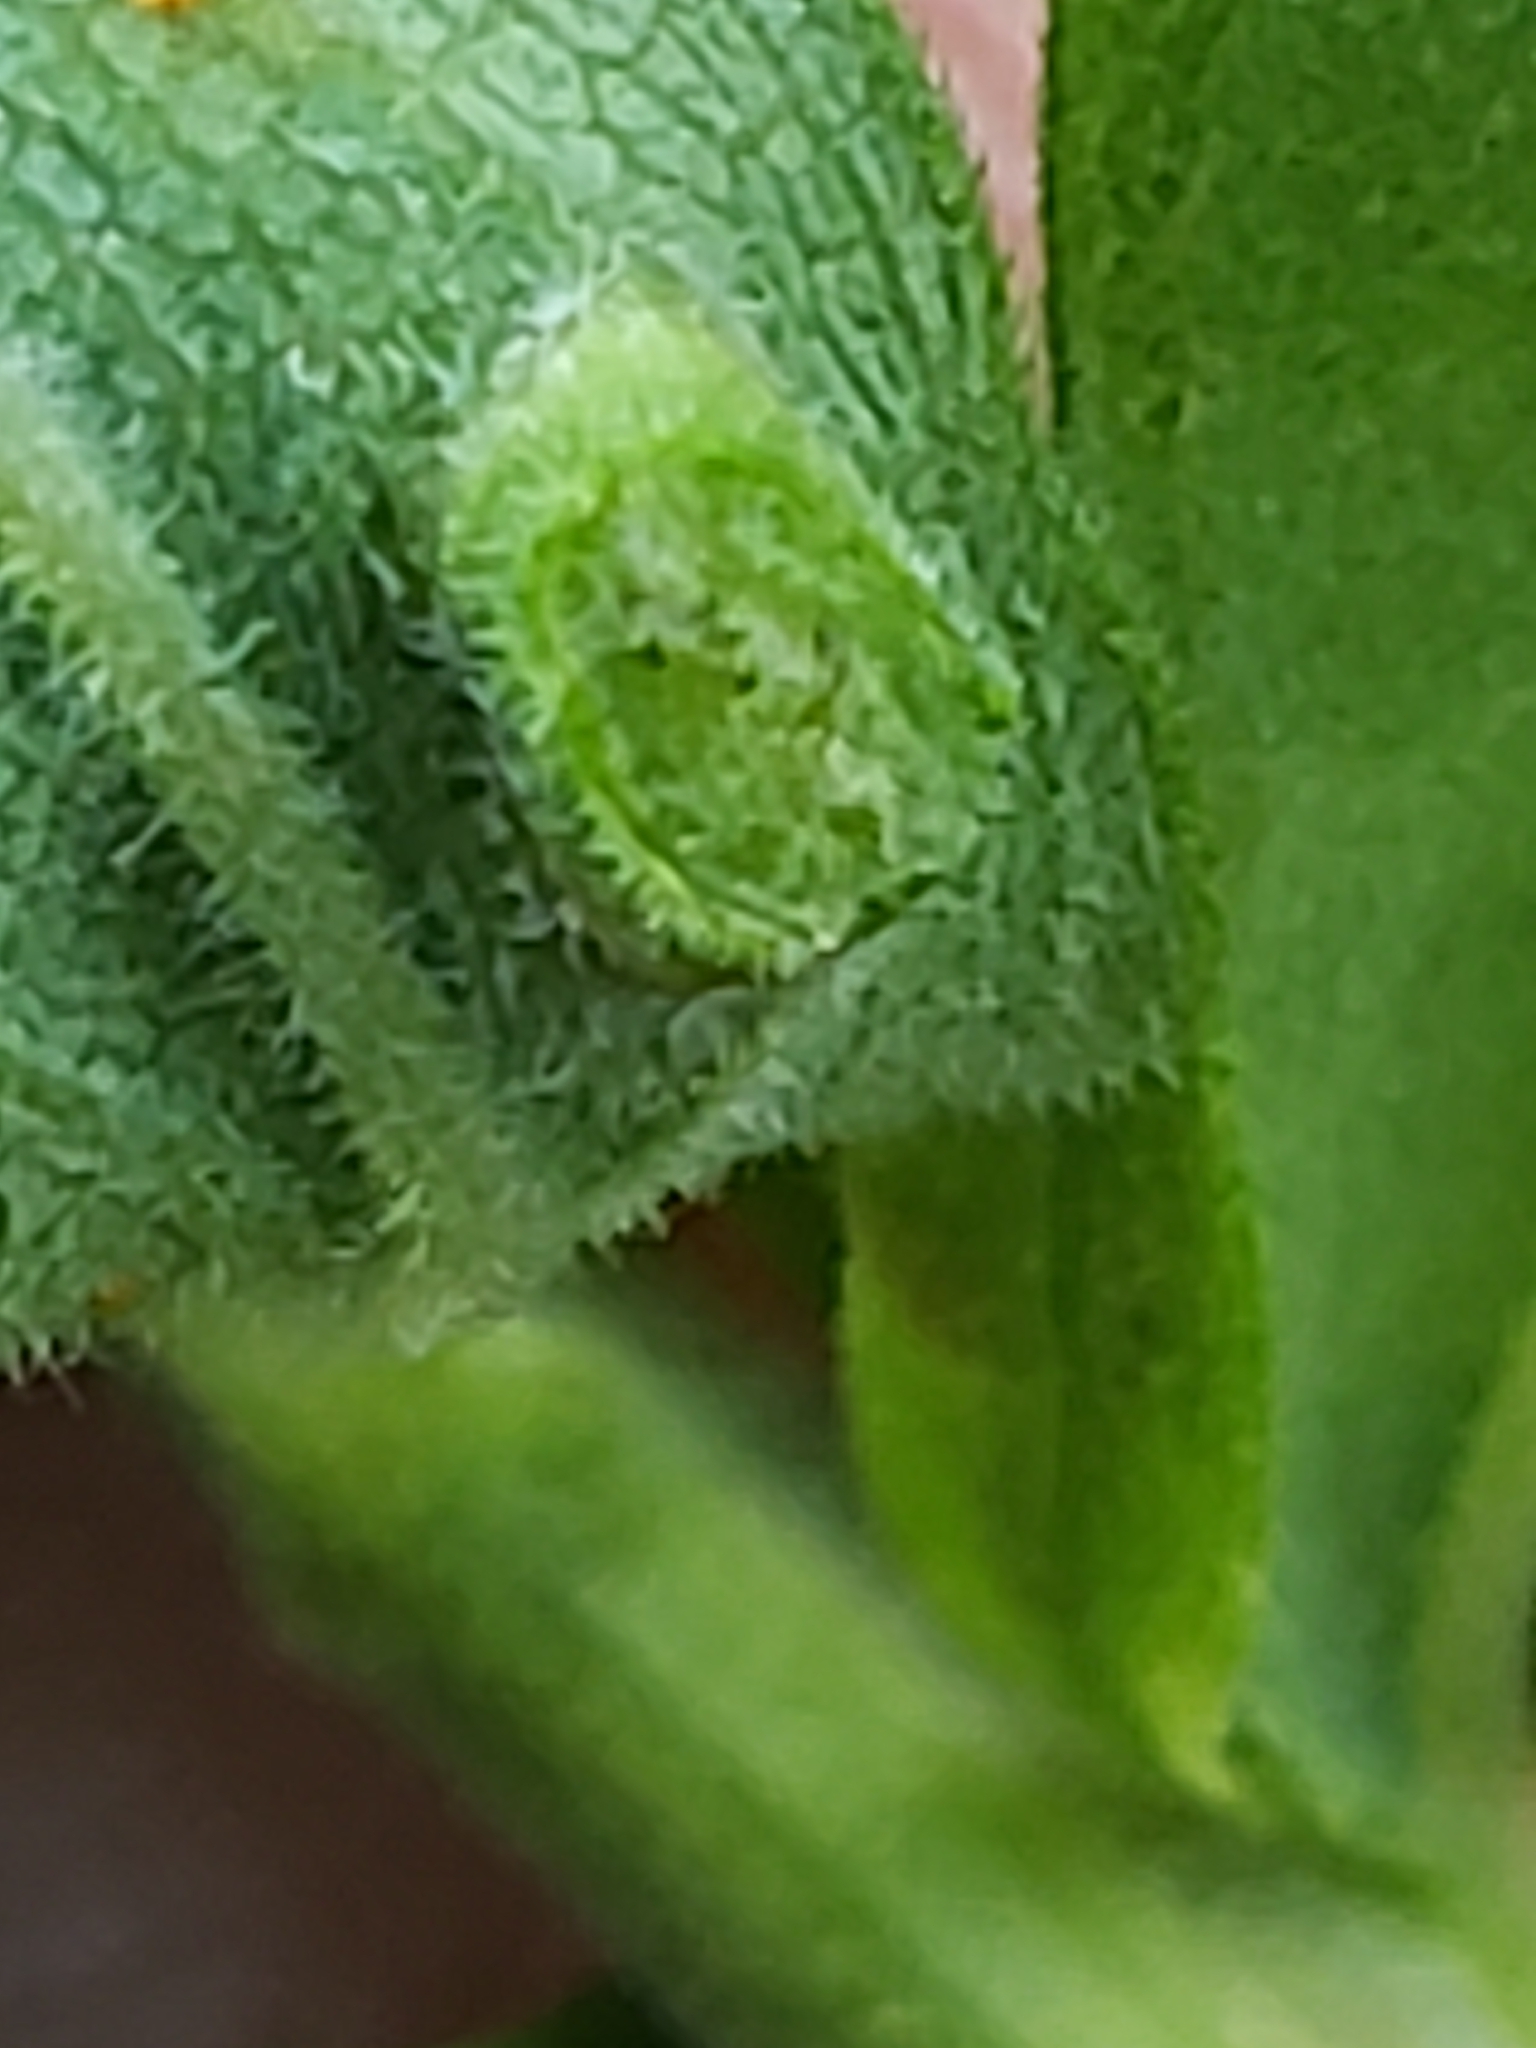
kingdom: Animalia
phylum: Arthropoda
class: Insecta
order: Diptera
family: Cecidomyiidae
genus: Asphondylia
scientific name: Asphondylia solidaginis
